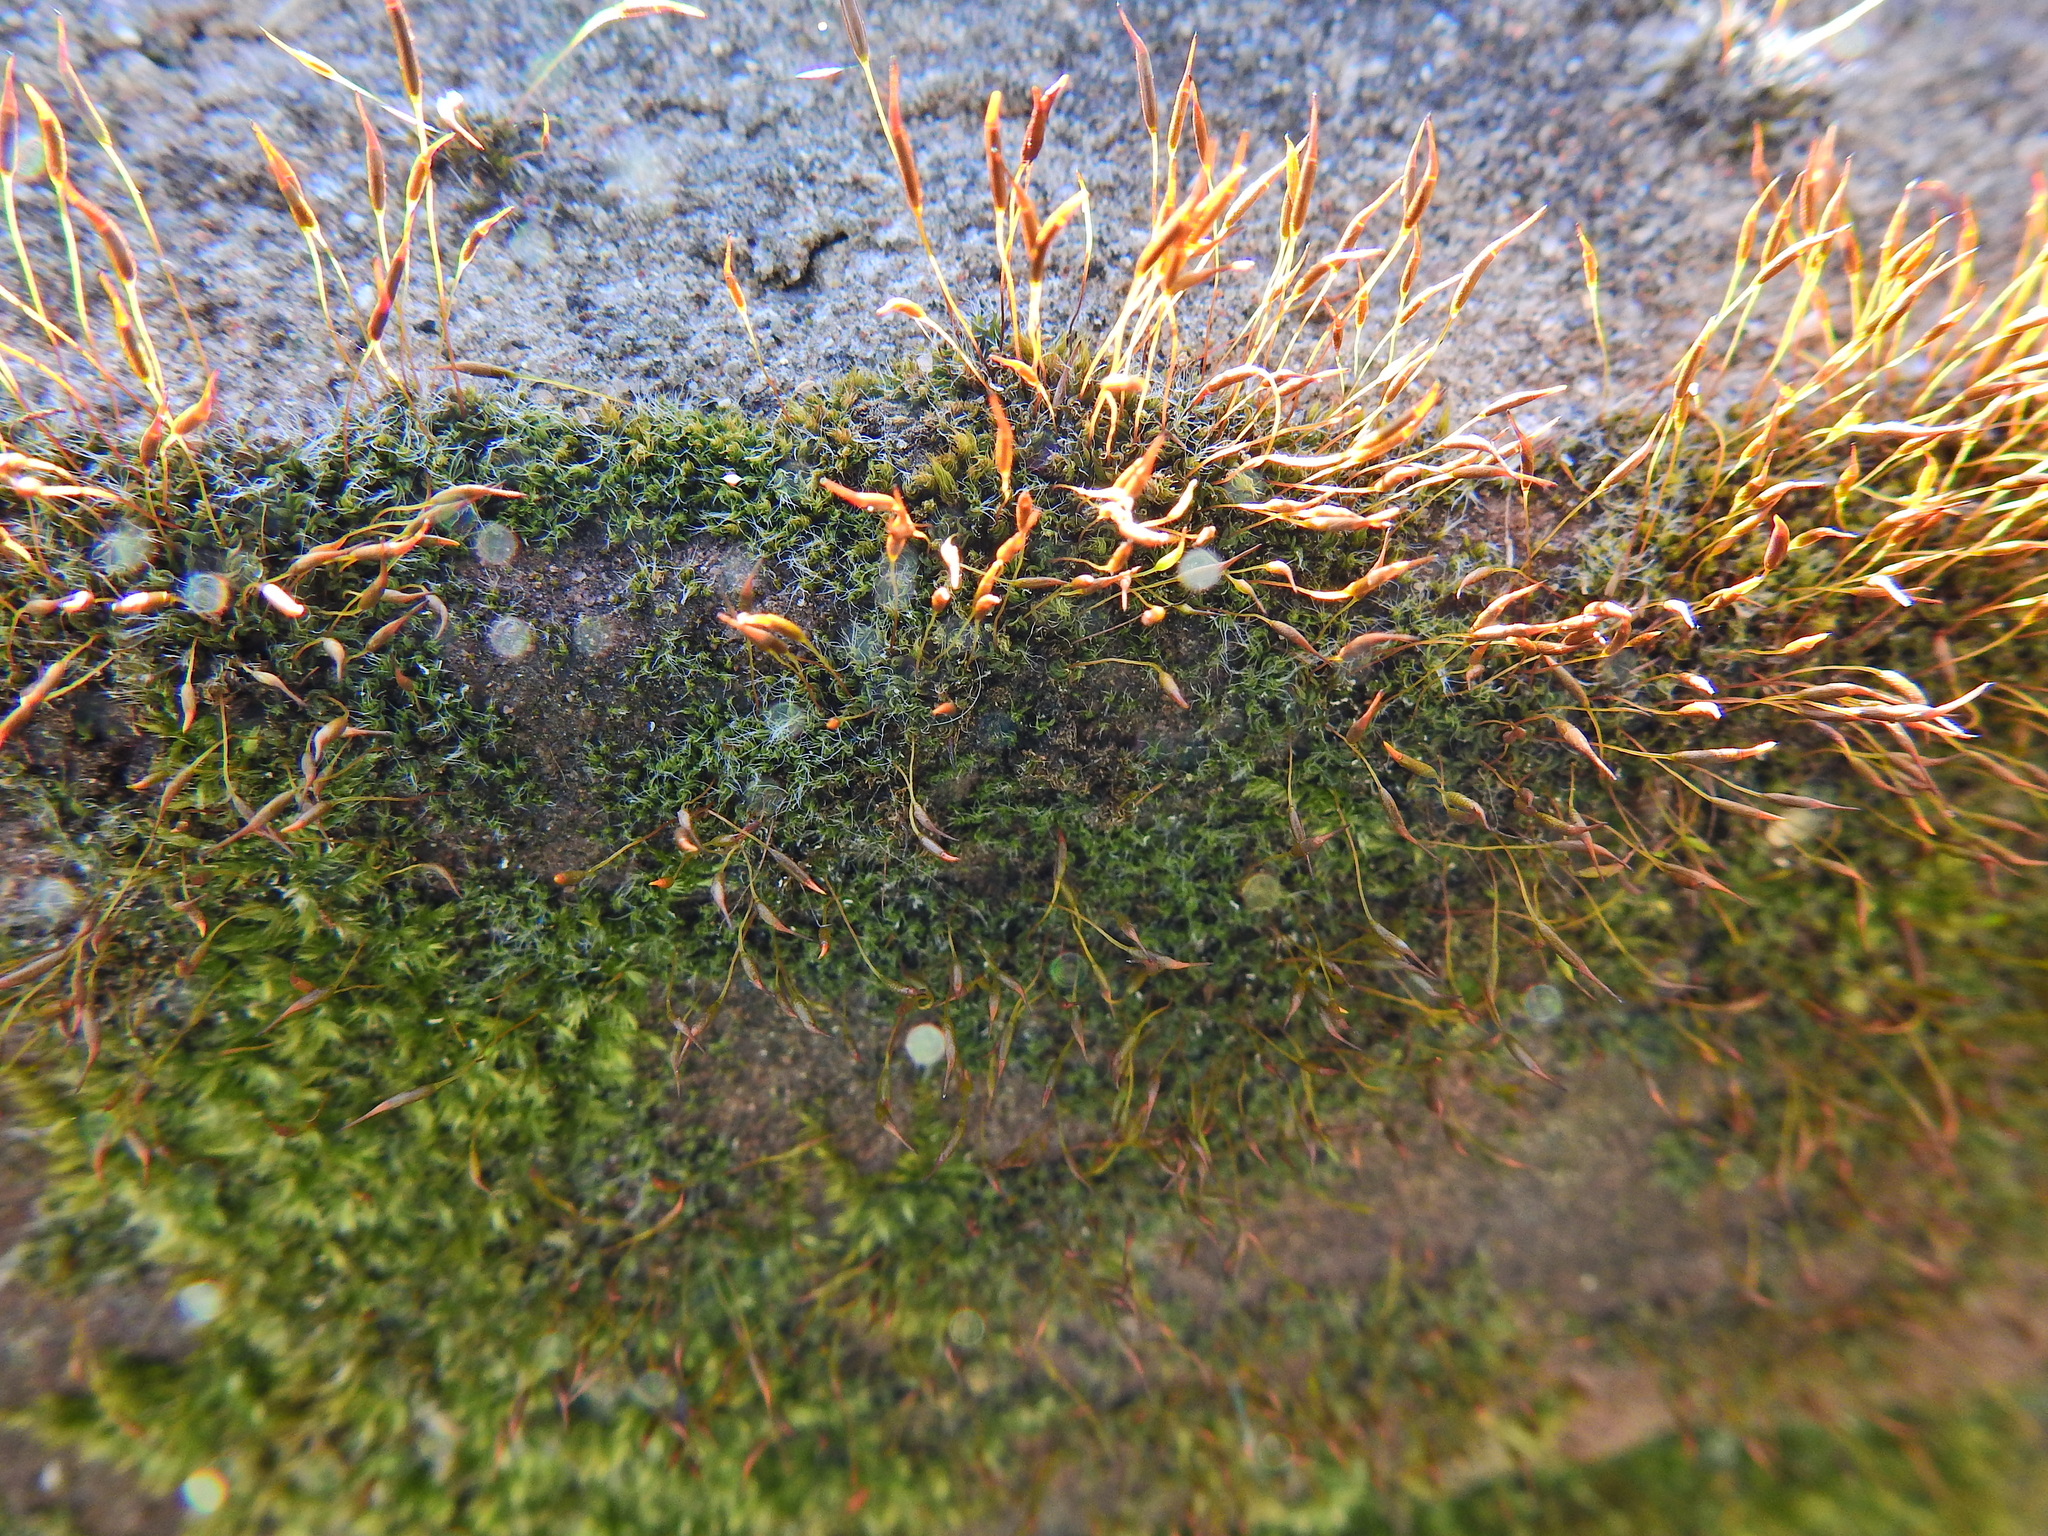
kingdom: Plantae
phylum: Bryophyta
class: Bryopsida
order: Pottiales
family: Pottiaceae
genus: Tortula
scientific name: Tortula muralis
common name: Wall screw-moss
